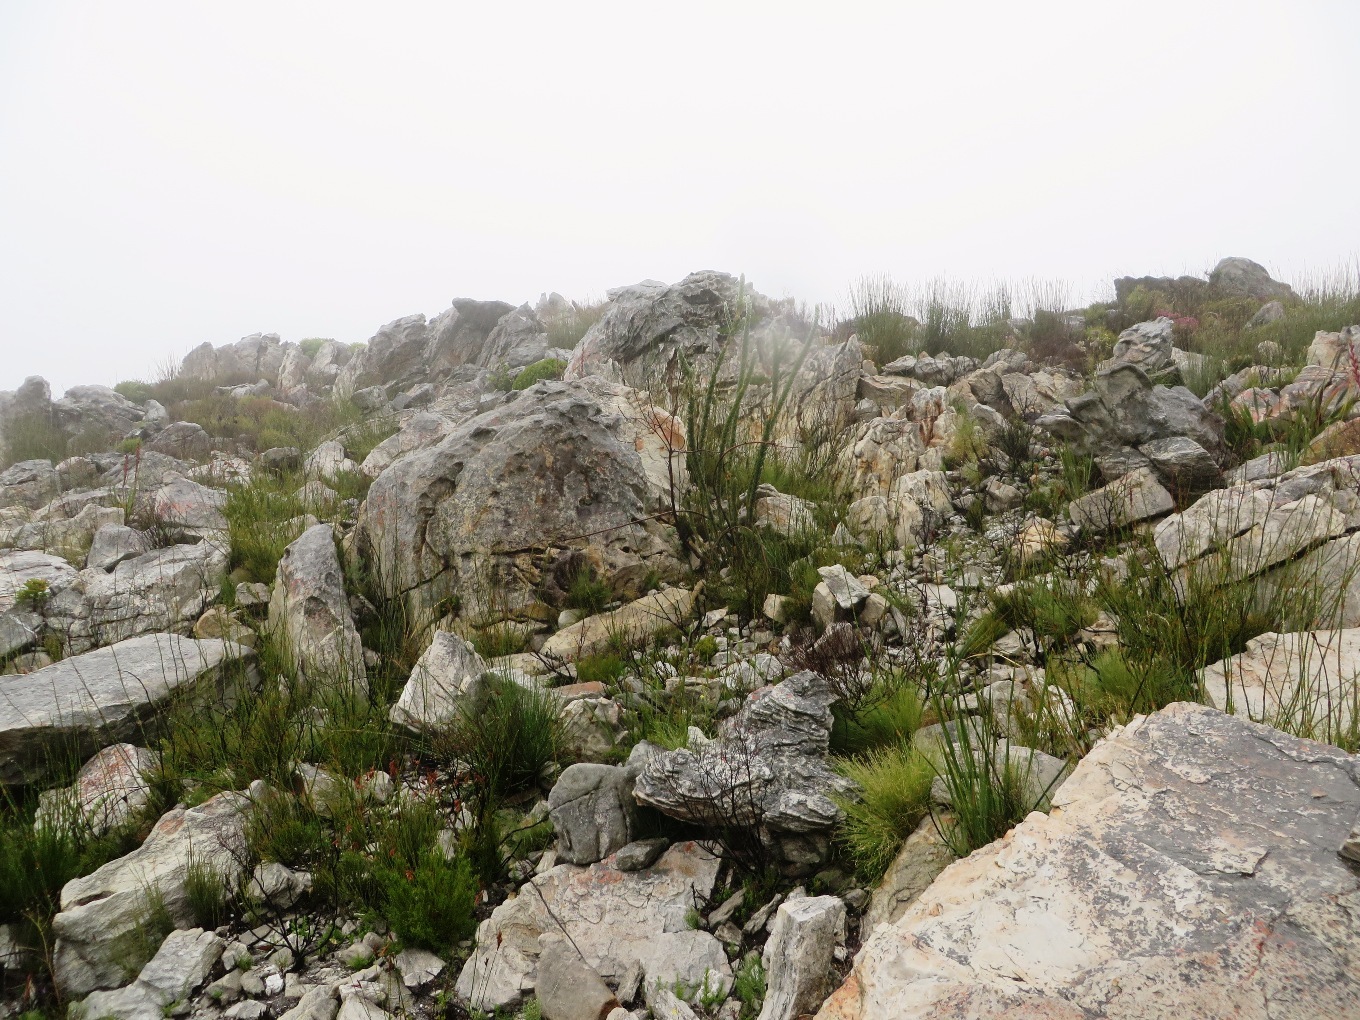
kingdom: Plantae
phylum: Tracheophyta
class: Magnoliopsida
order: Fabales
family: Fabaceae
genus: Liparia
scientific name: Liparia vestita
